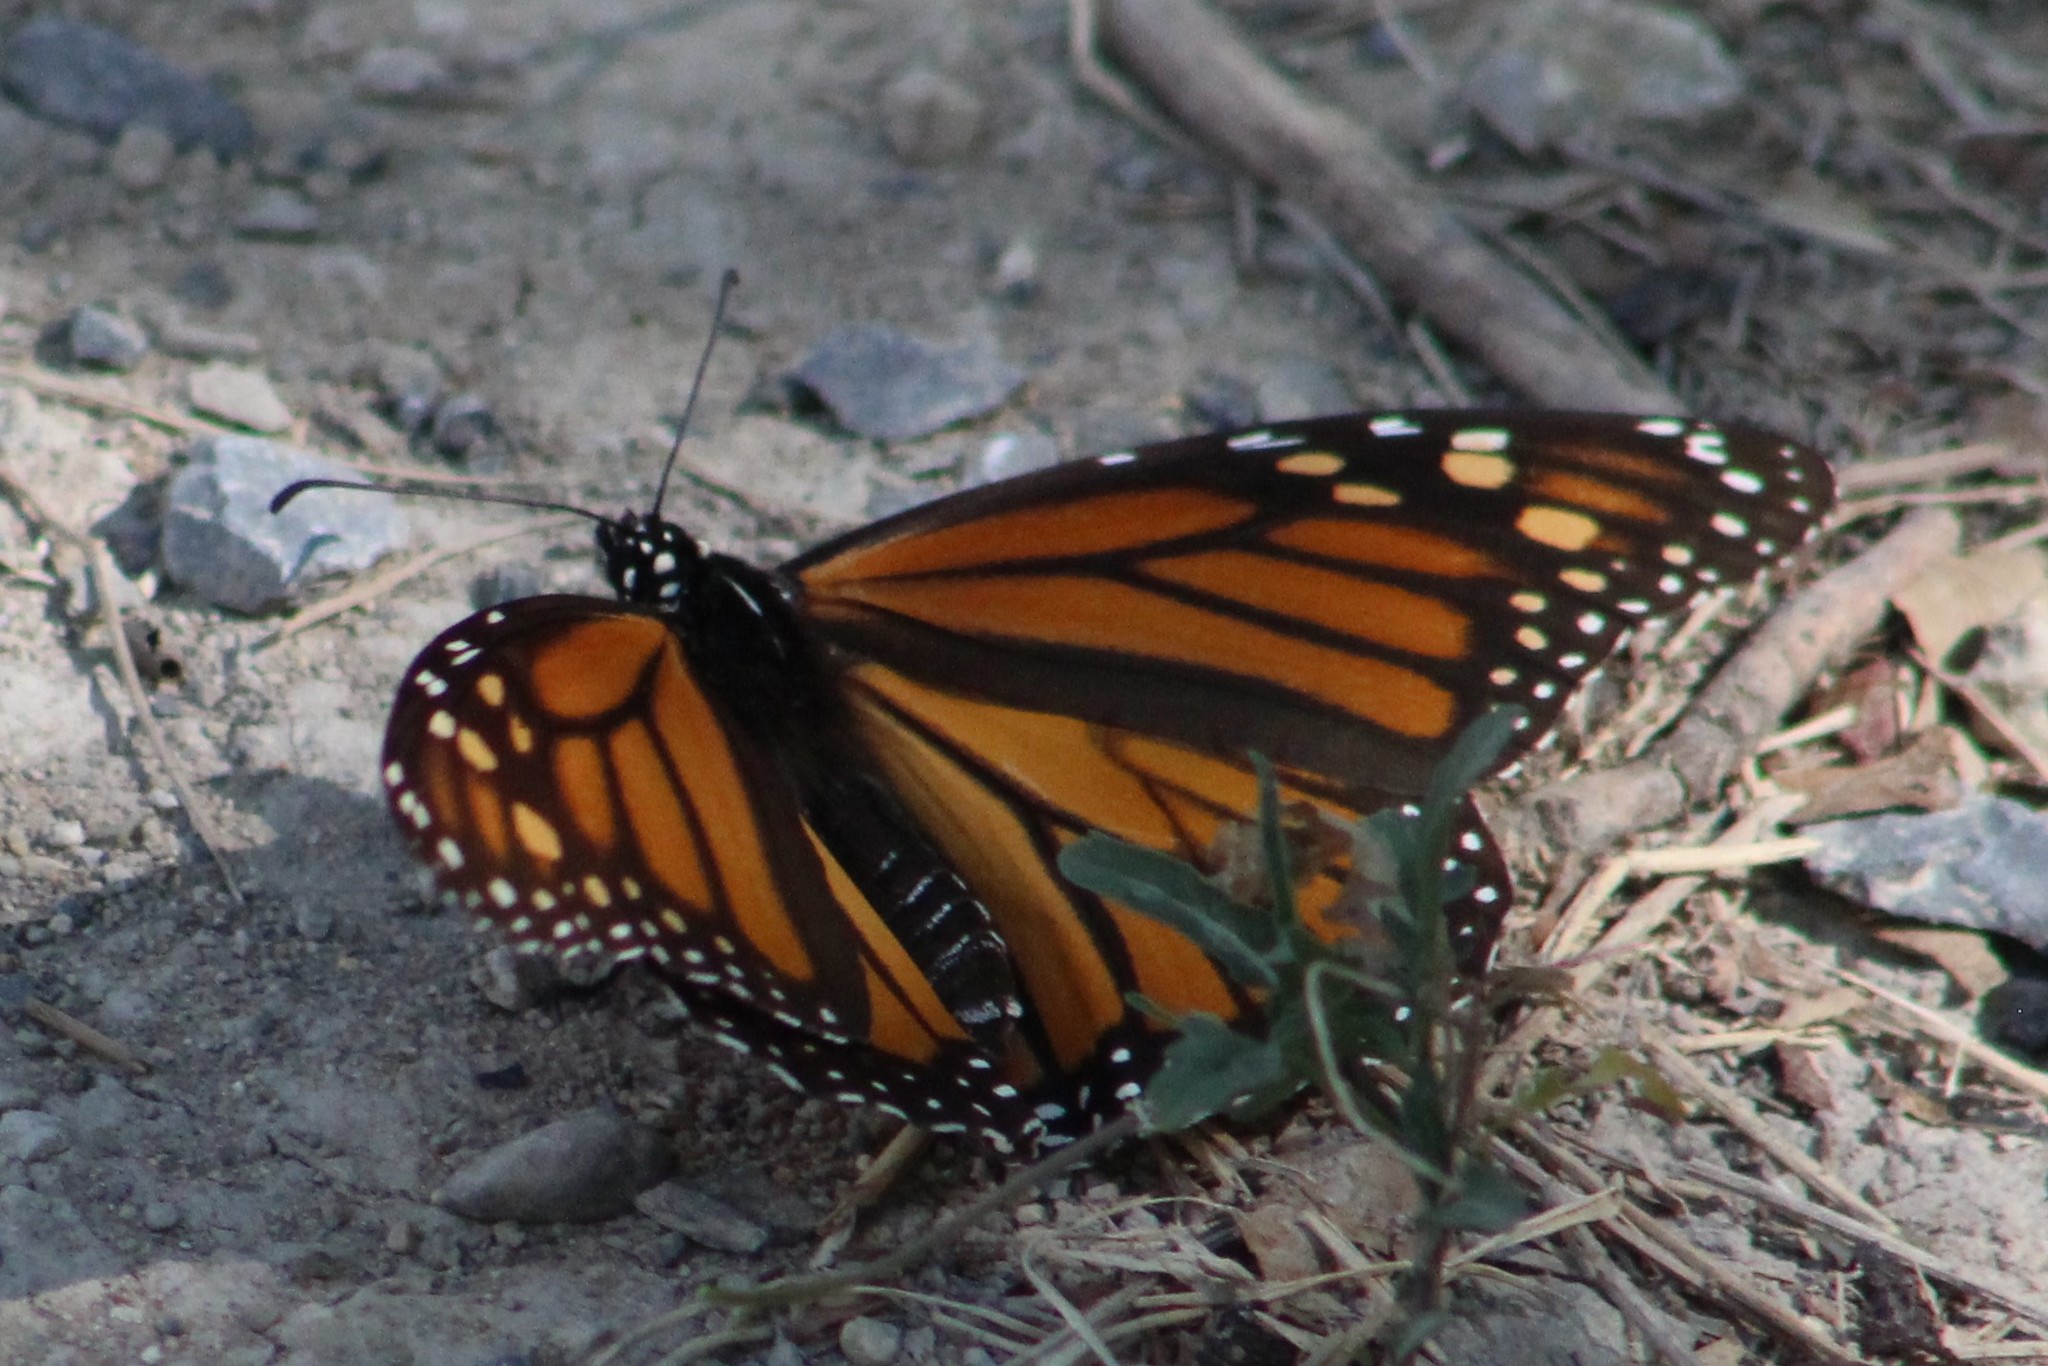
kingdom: Animalia
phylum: Arthropoda
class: Insecta
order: Lepidoptera
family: Nymphalidae
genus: Danaus
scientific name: Danaus plexippus
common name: Monarch
